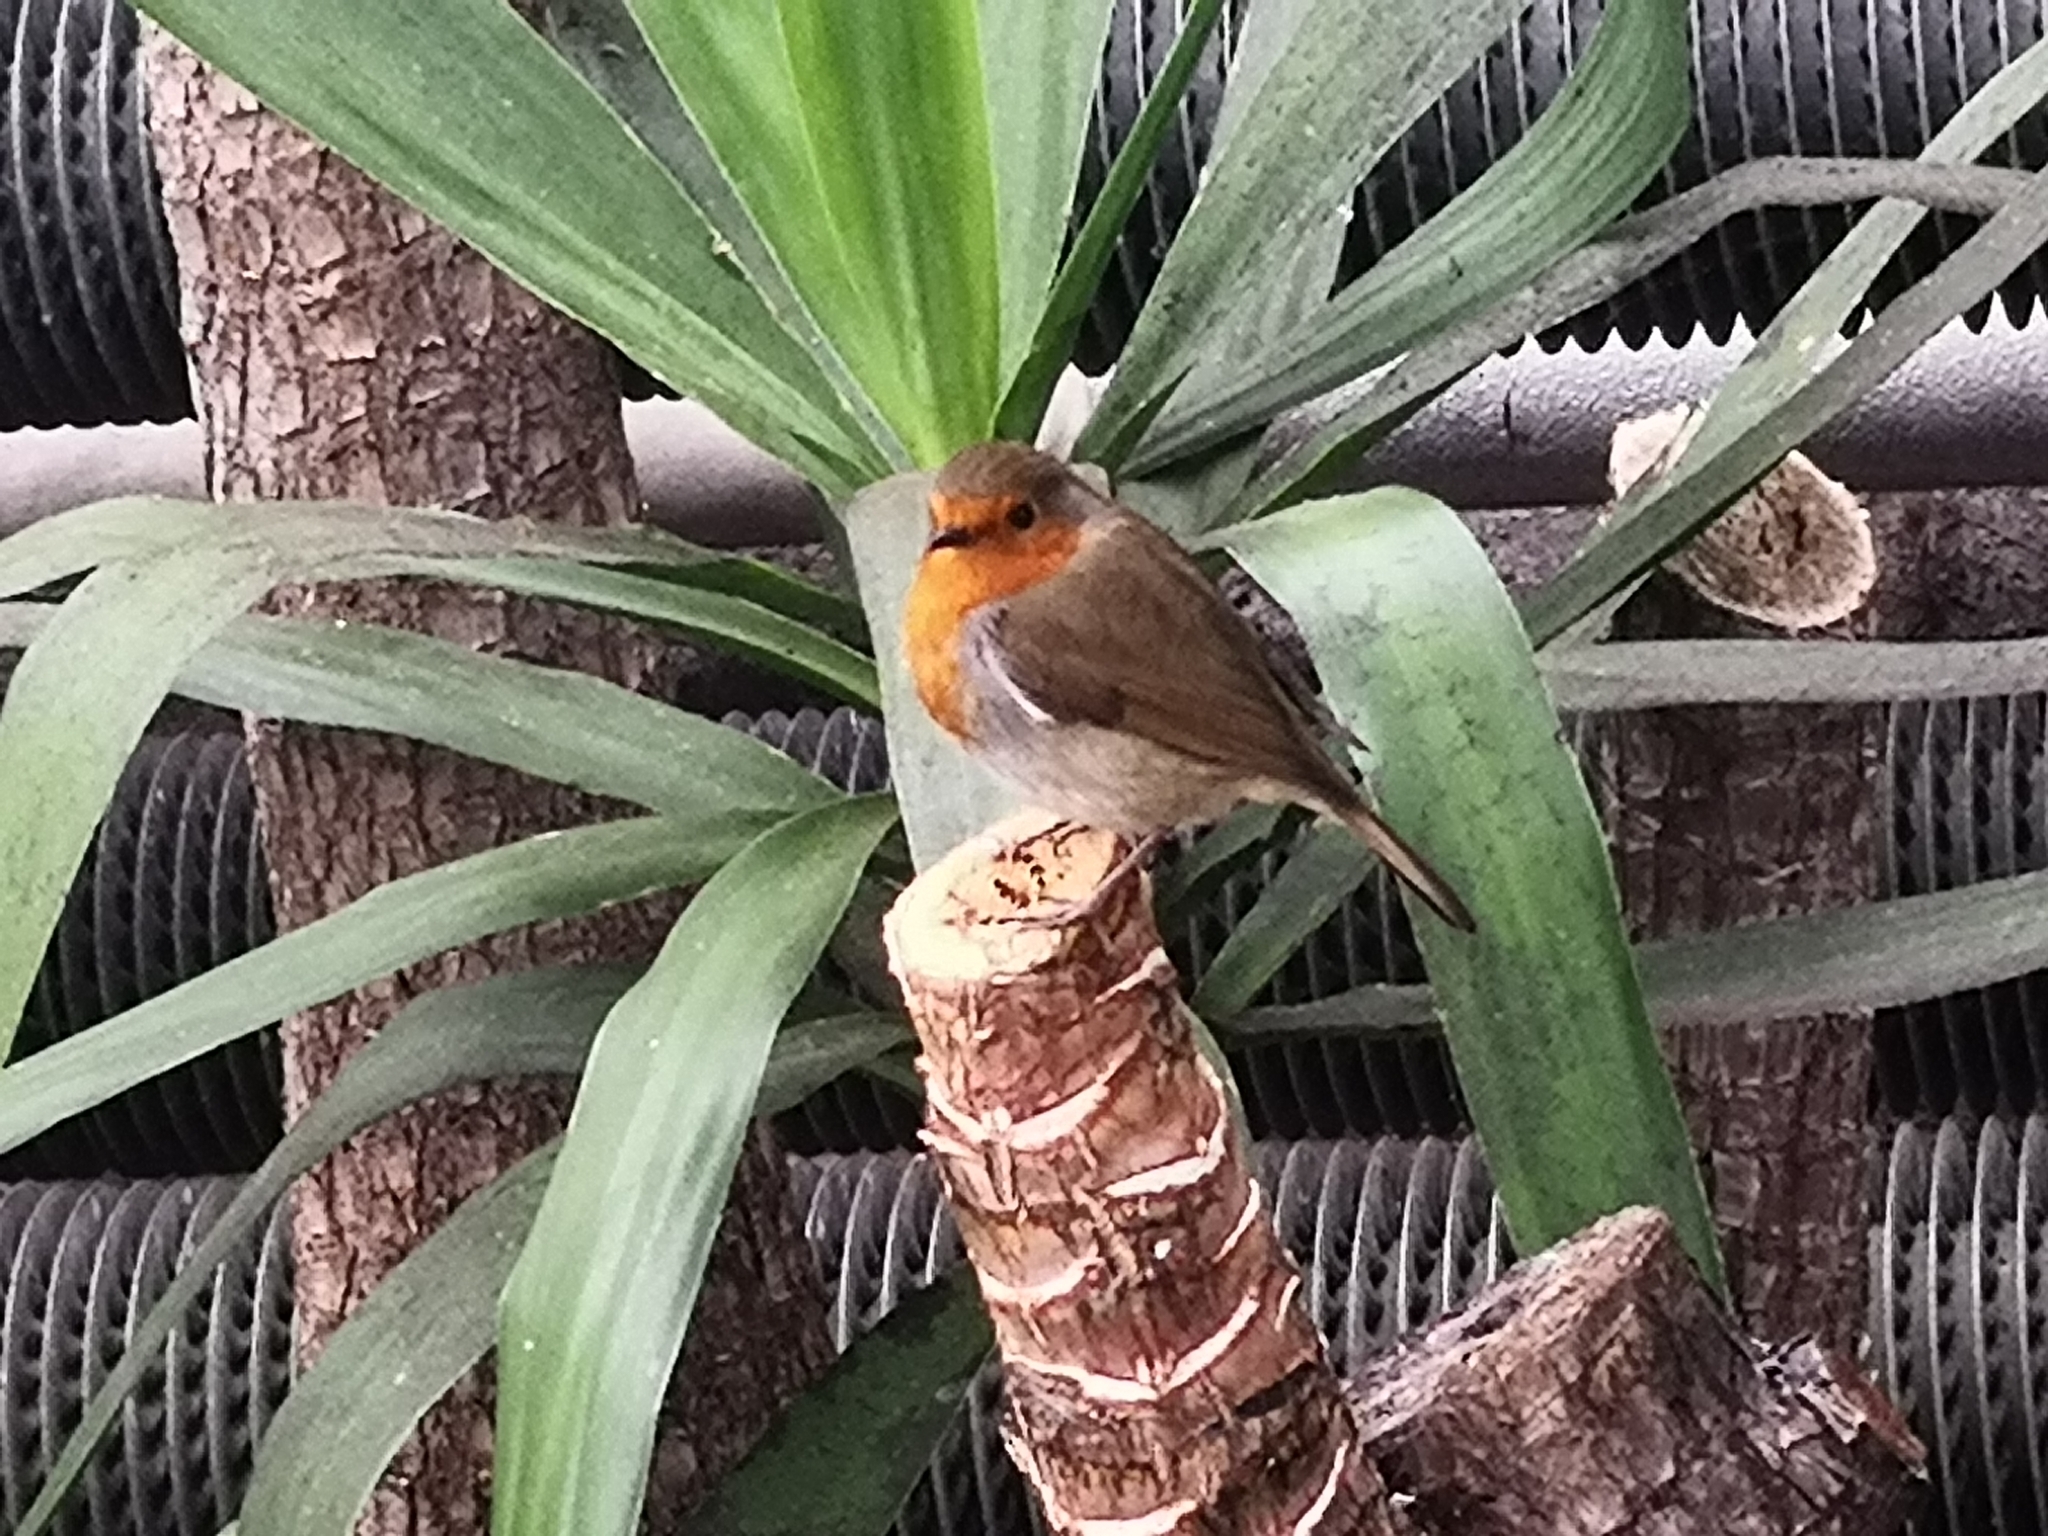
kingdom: Animalia
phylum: Chordata
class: Aves
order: Passeriformes
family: Muscicapidae
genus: Erithacus
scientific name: Erithacus rubecula
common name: European robin
